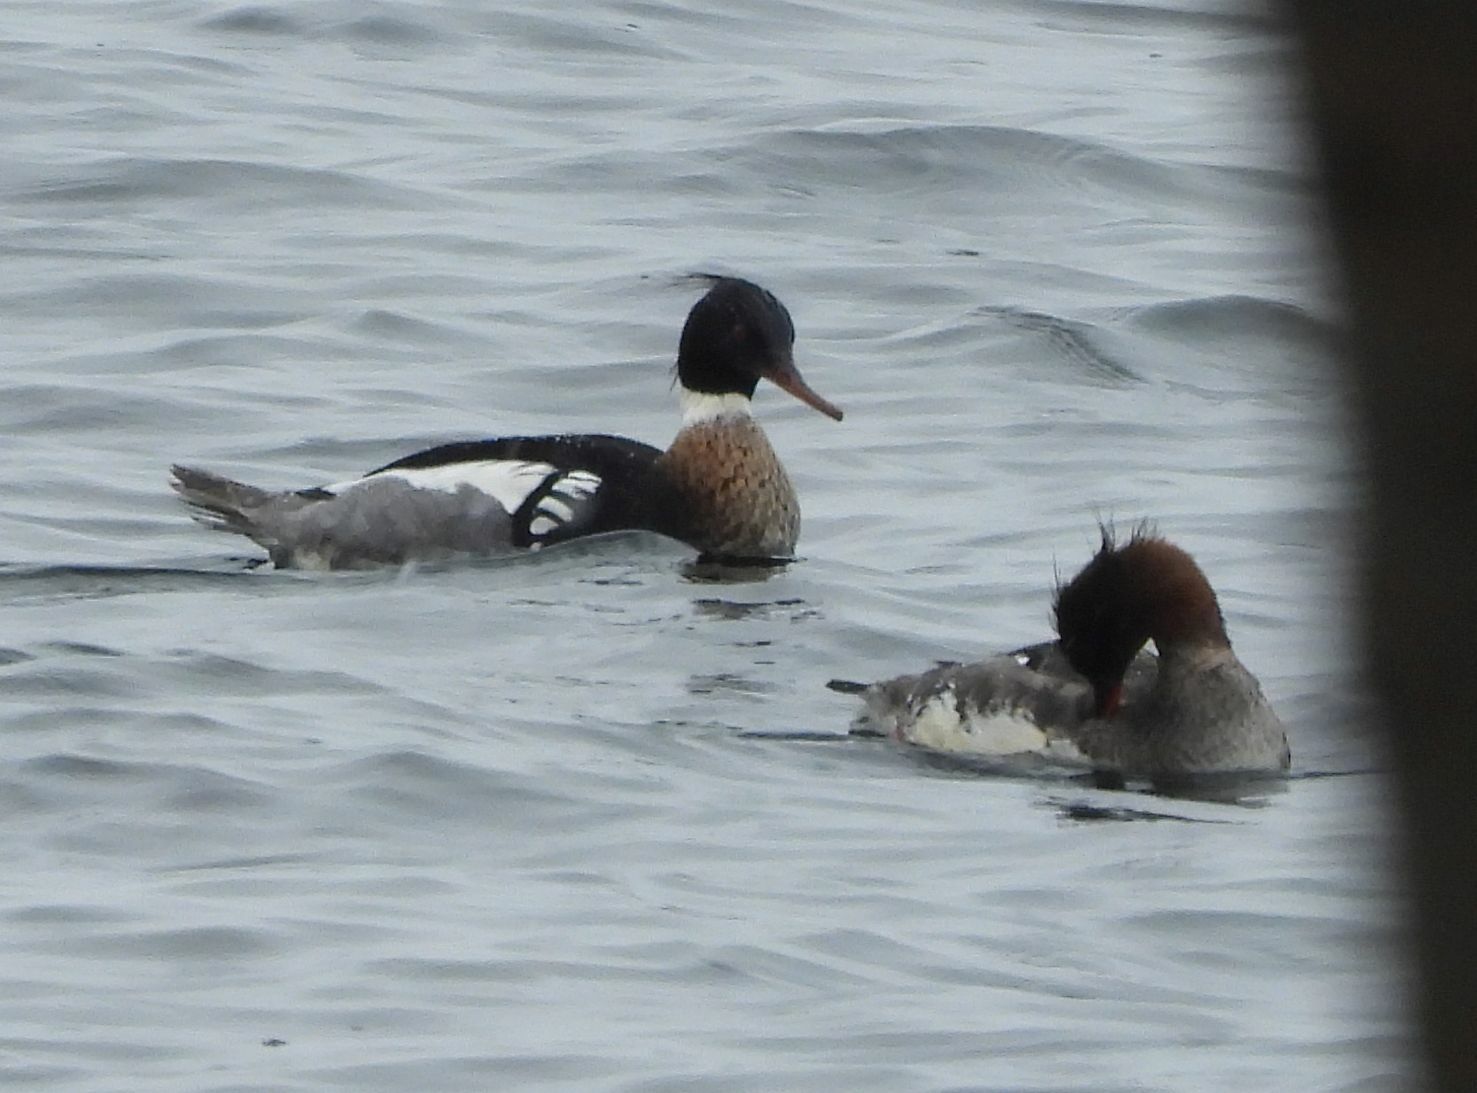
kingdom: Animalia
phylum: Chordata
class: Aves
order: Anseriformes
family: Anatidae
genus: Mergus
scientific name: Mergus serrator
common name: Red-breasted merganser
